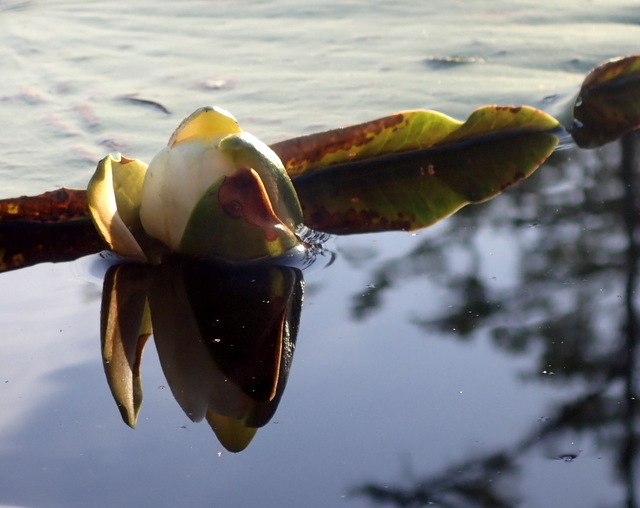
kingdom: Plantae
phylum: Tracheophyta
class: Magnoliopsida
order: Nymphaeales
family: Nymphaeaceae
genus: Nymphaea
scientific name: Nymphaea odorata
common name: Fragrant water-lily
